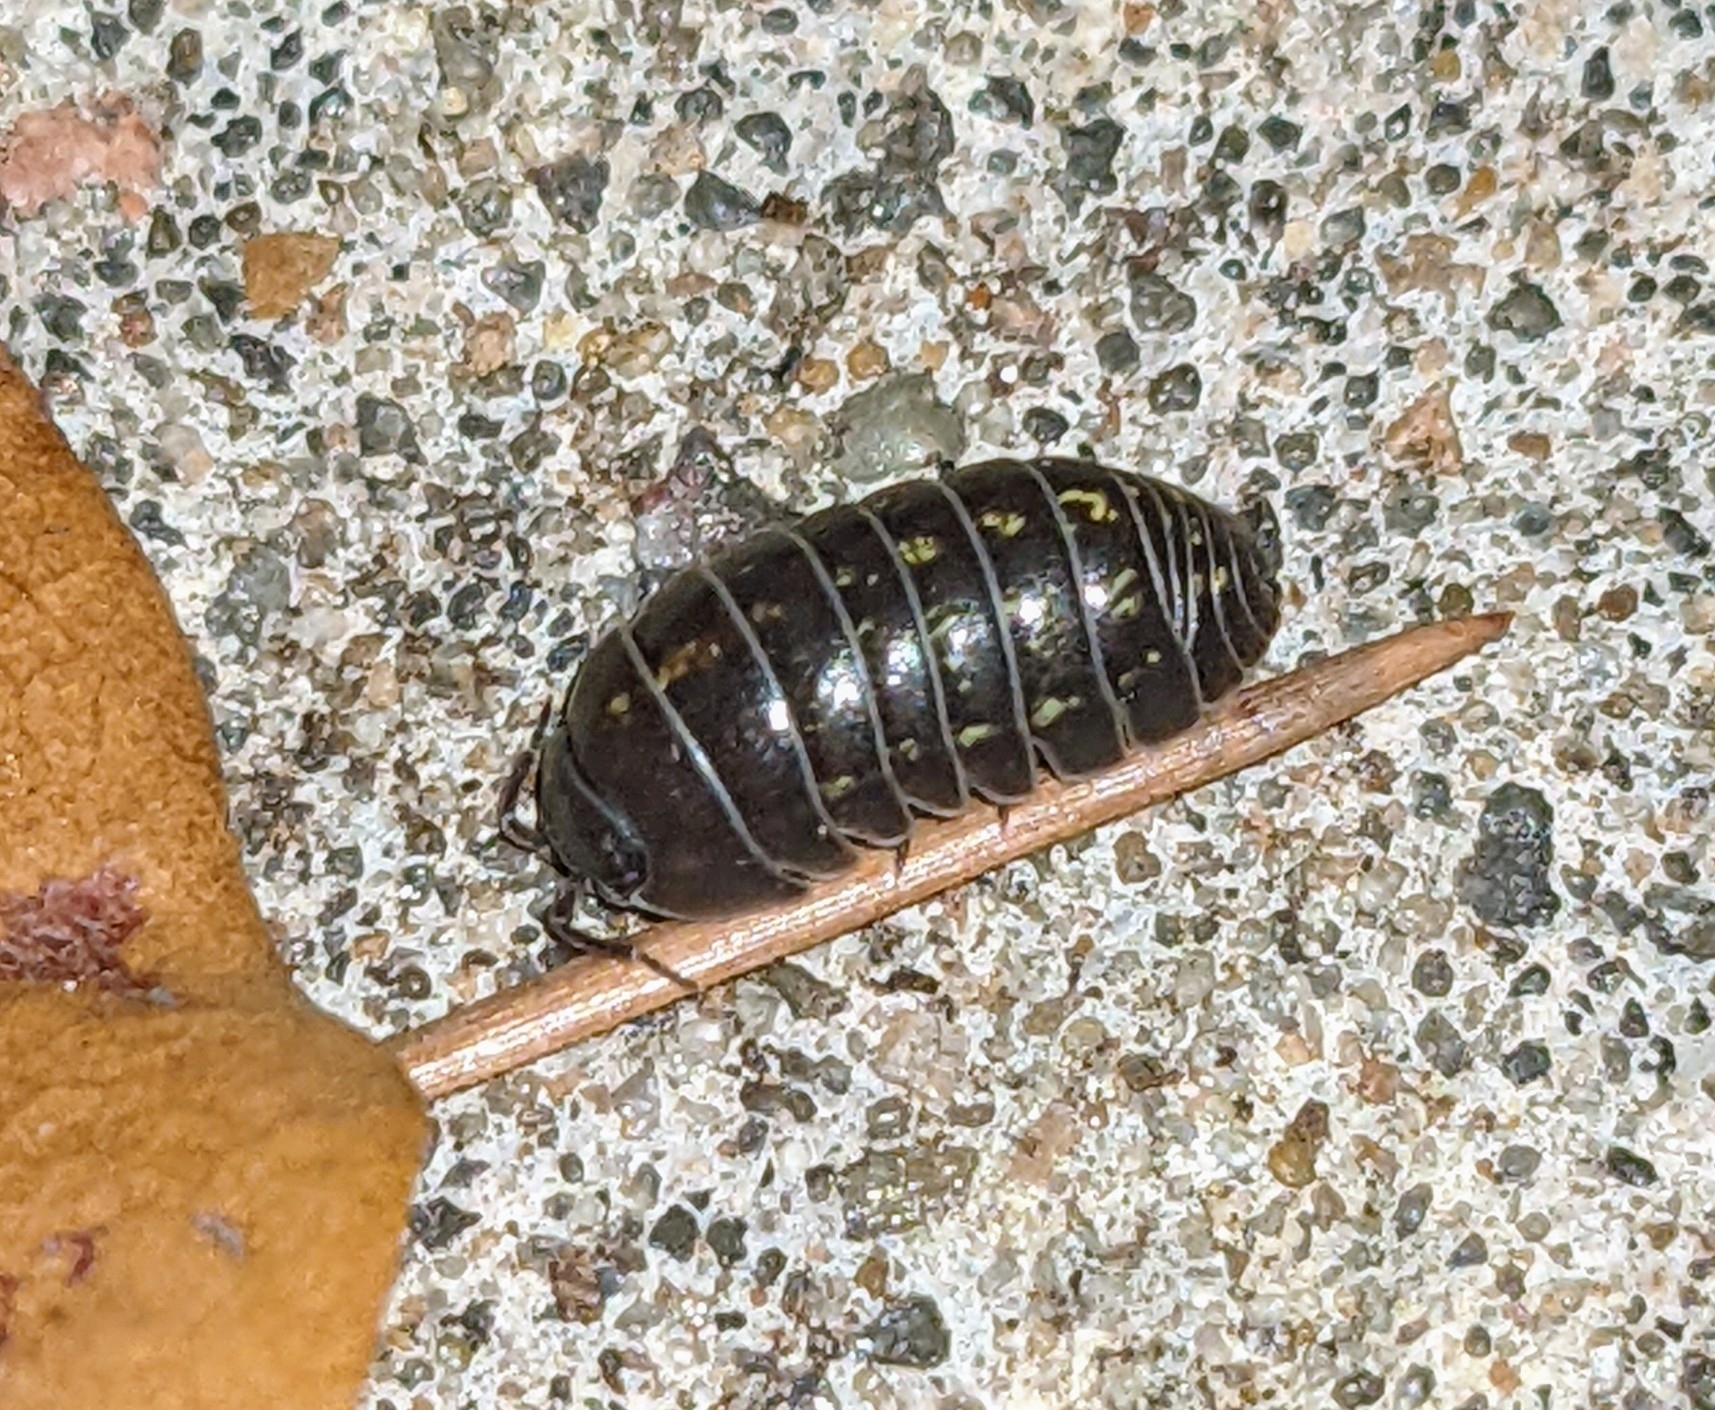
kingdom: Animalia
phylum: Arthropoda
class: Malacostraca
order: Isopoda
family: Armadillidiidae
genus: Armadillidium
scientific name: Armadillidium vulgare
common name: Common pill woodlouse
